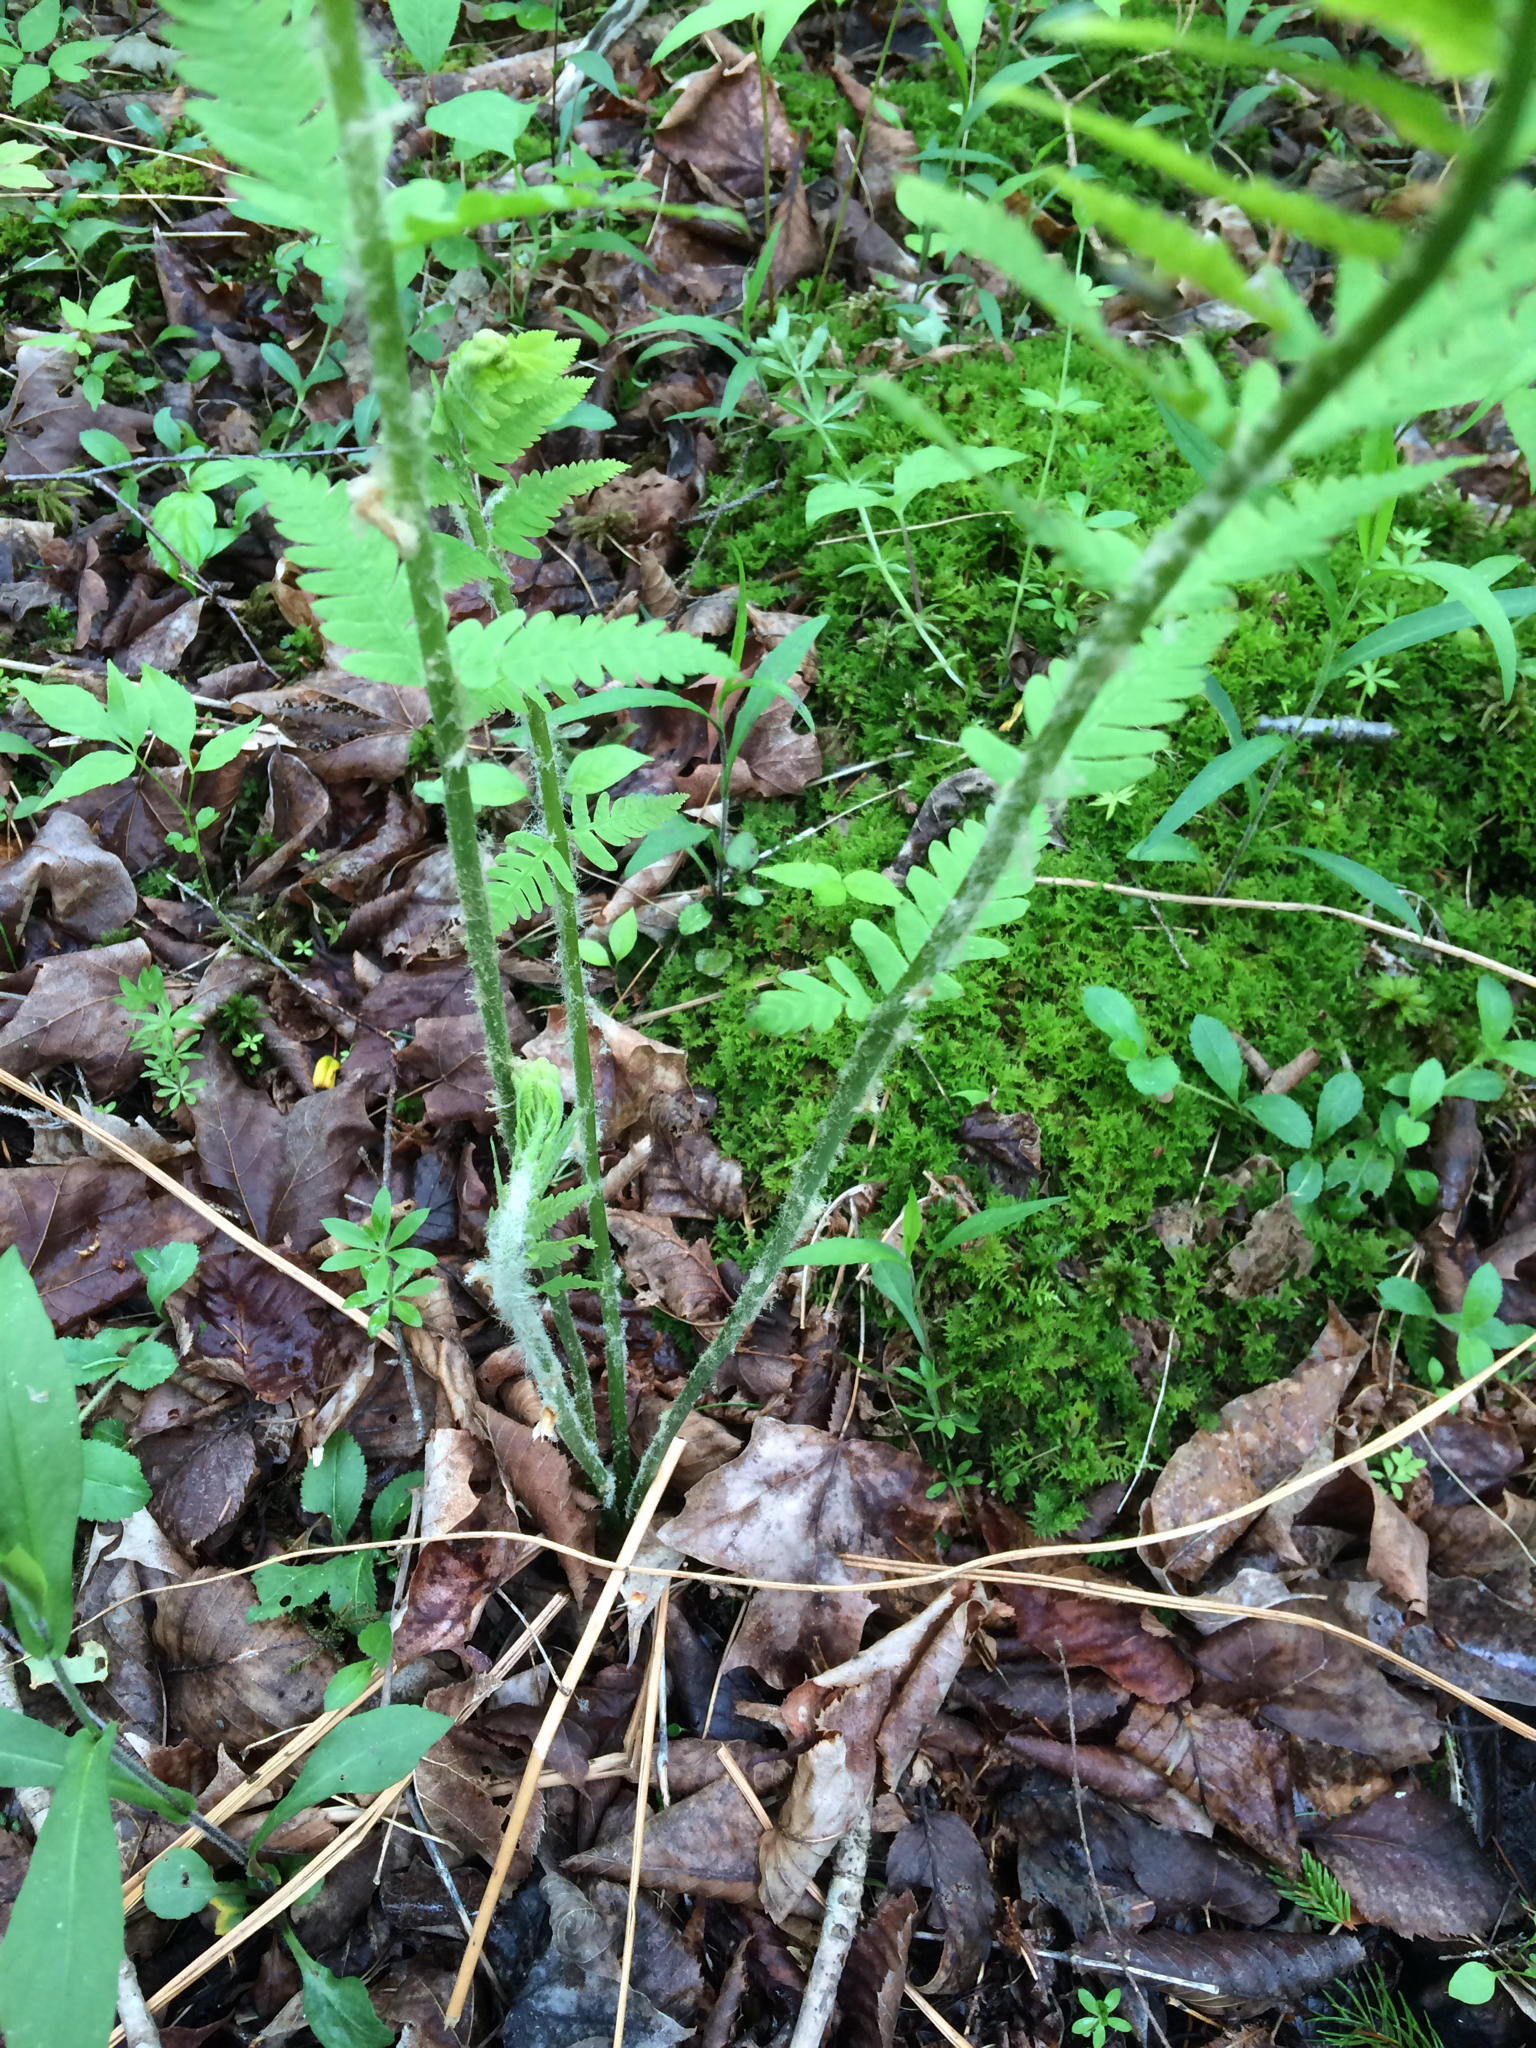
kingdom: Plantae
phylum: Tracheophyta
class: Polypodiopsida
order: Osmundales
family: Osmundaceae
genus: Osmundastrum
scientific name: Osmundastrum cinnamomeum
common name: Cinnamon fern
